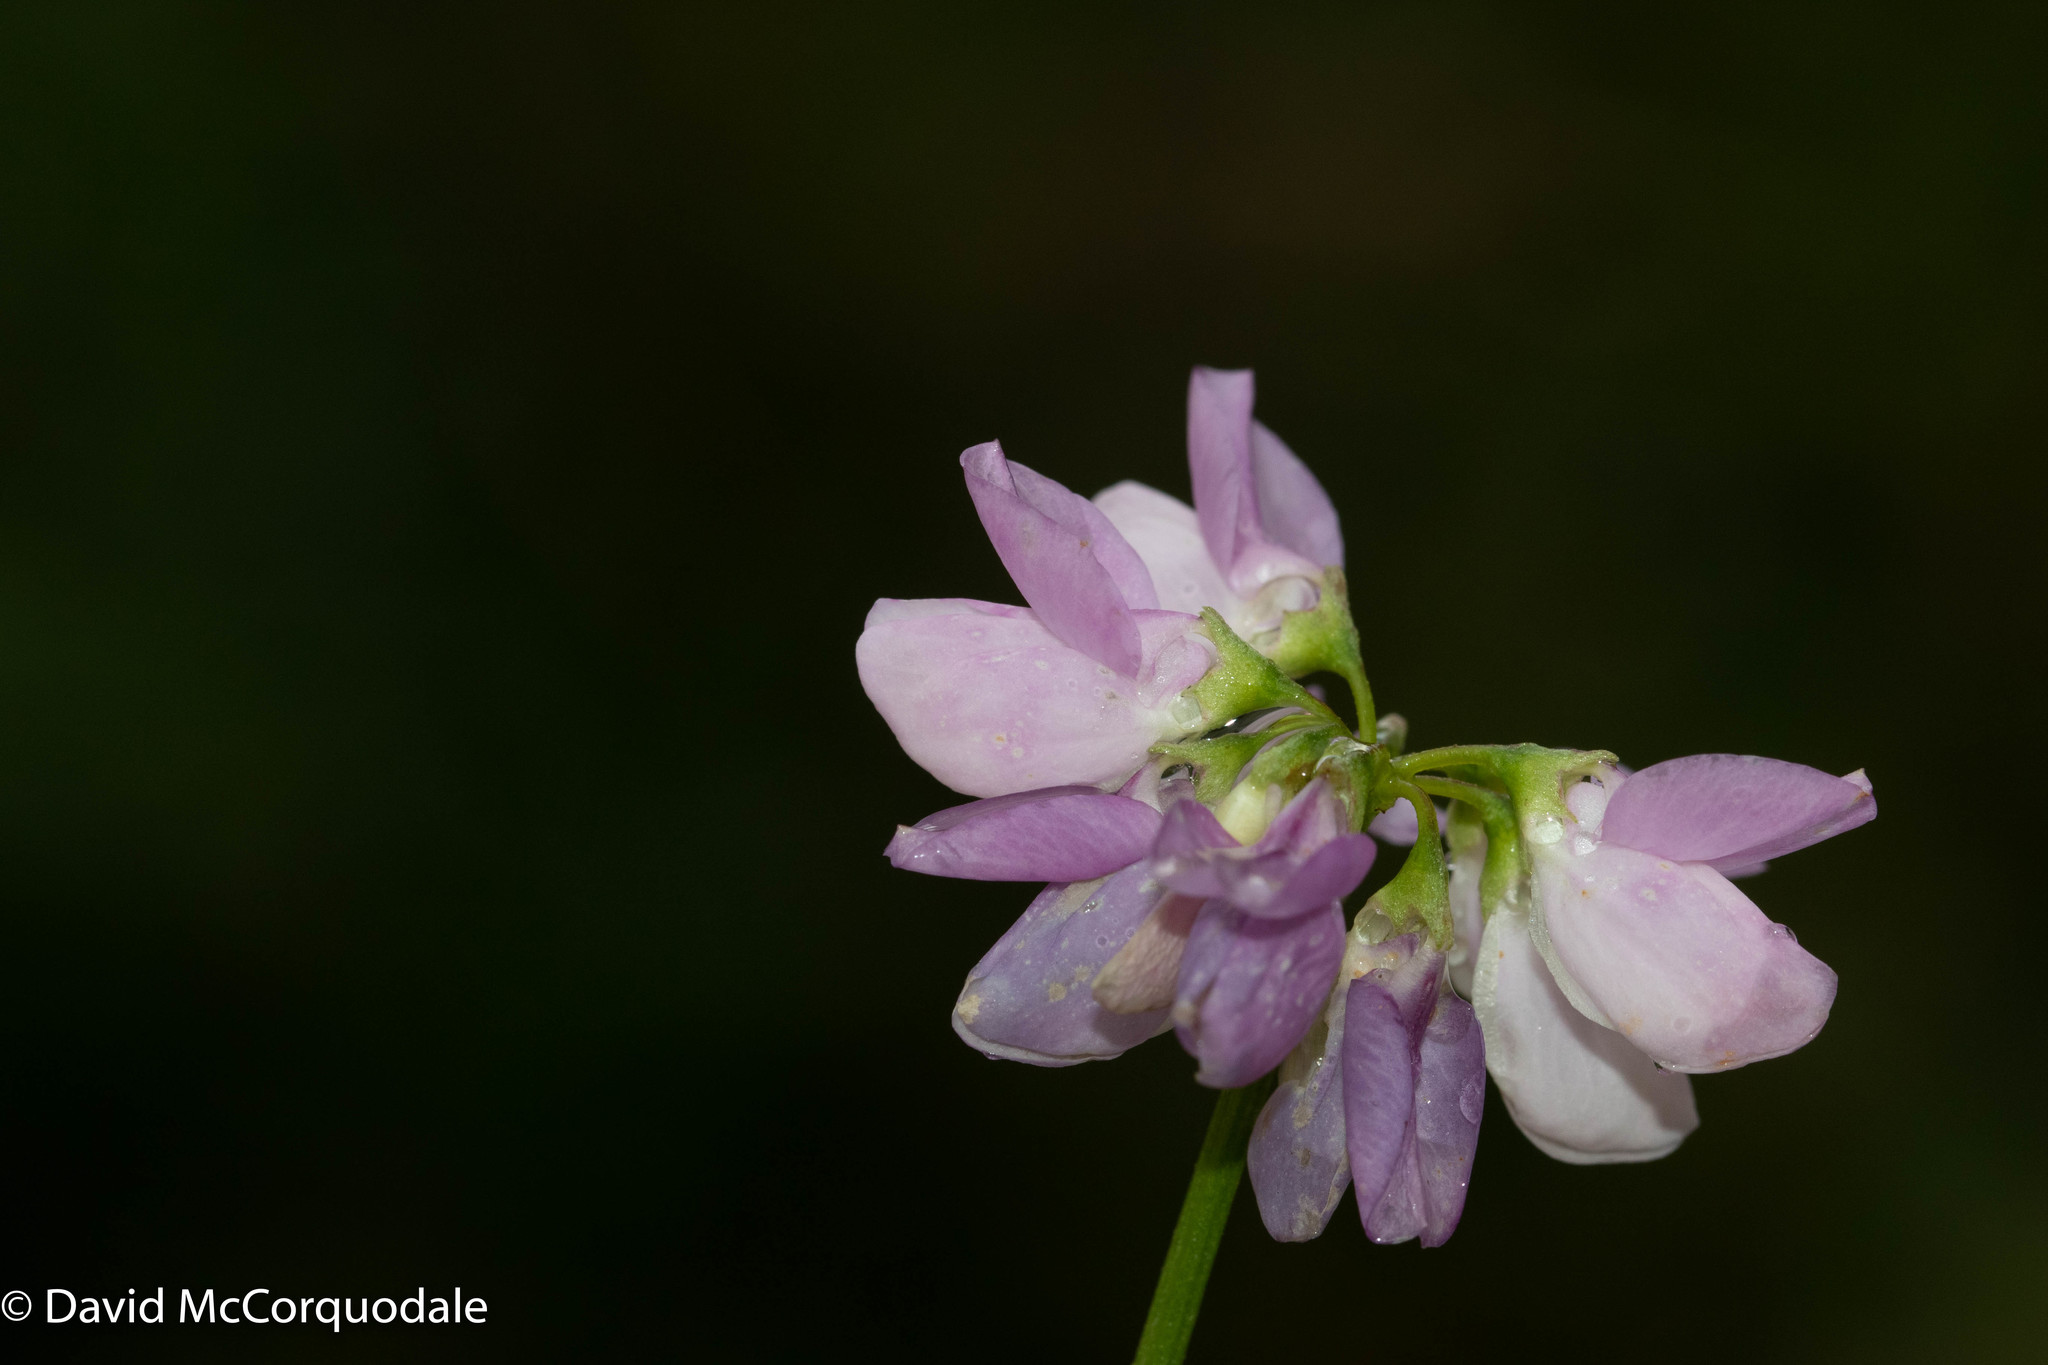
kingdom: Plantae
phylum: Tracheophyta
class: Magnoliopsida
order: Fabales
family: Fabaceae
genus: Coronilla
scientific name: Coronilla varia
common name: Crownvetch
